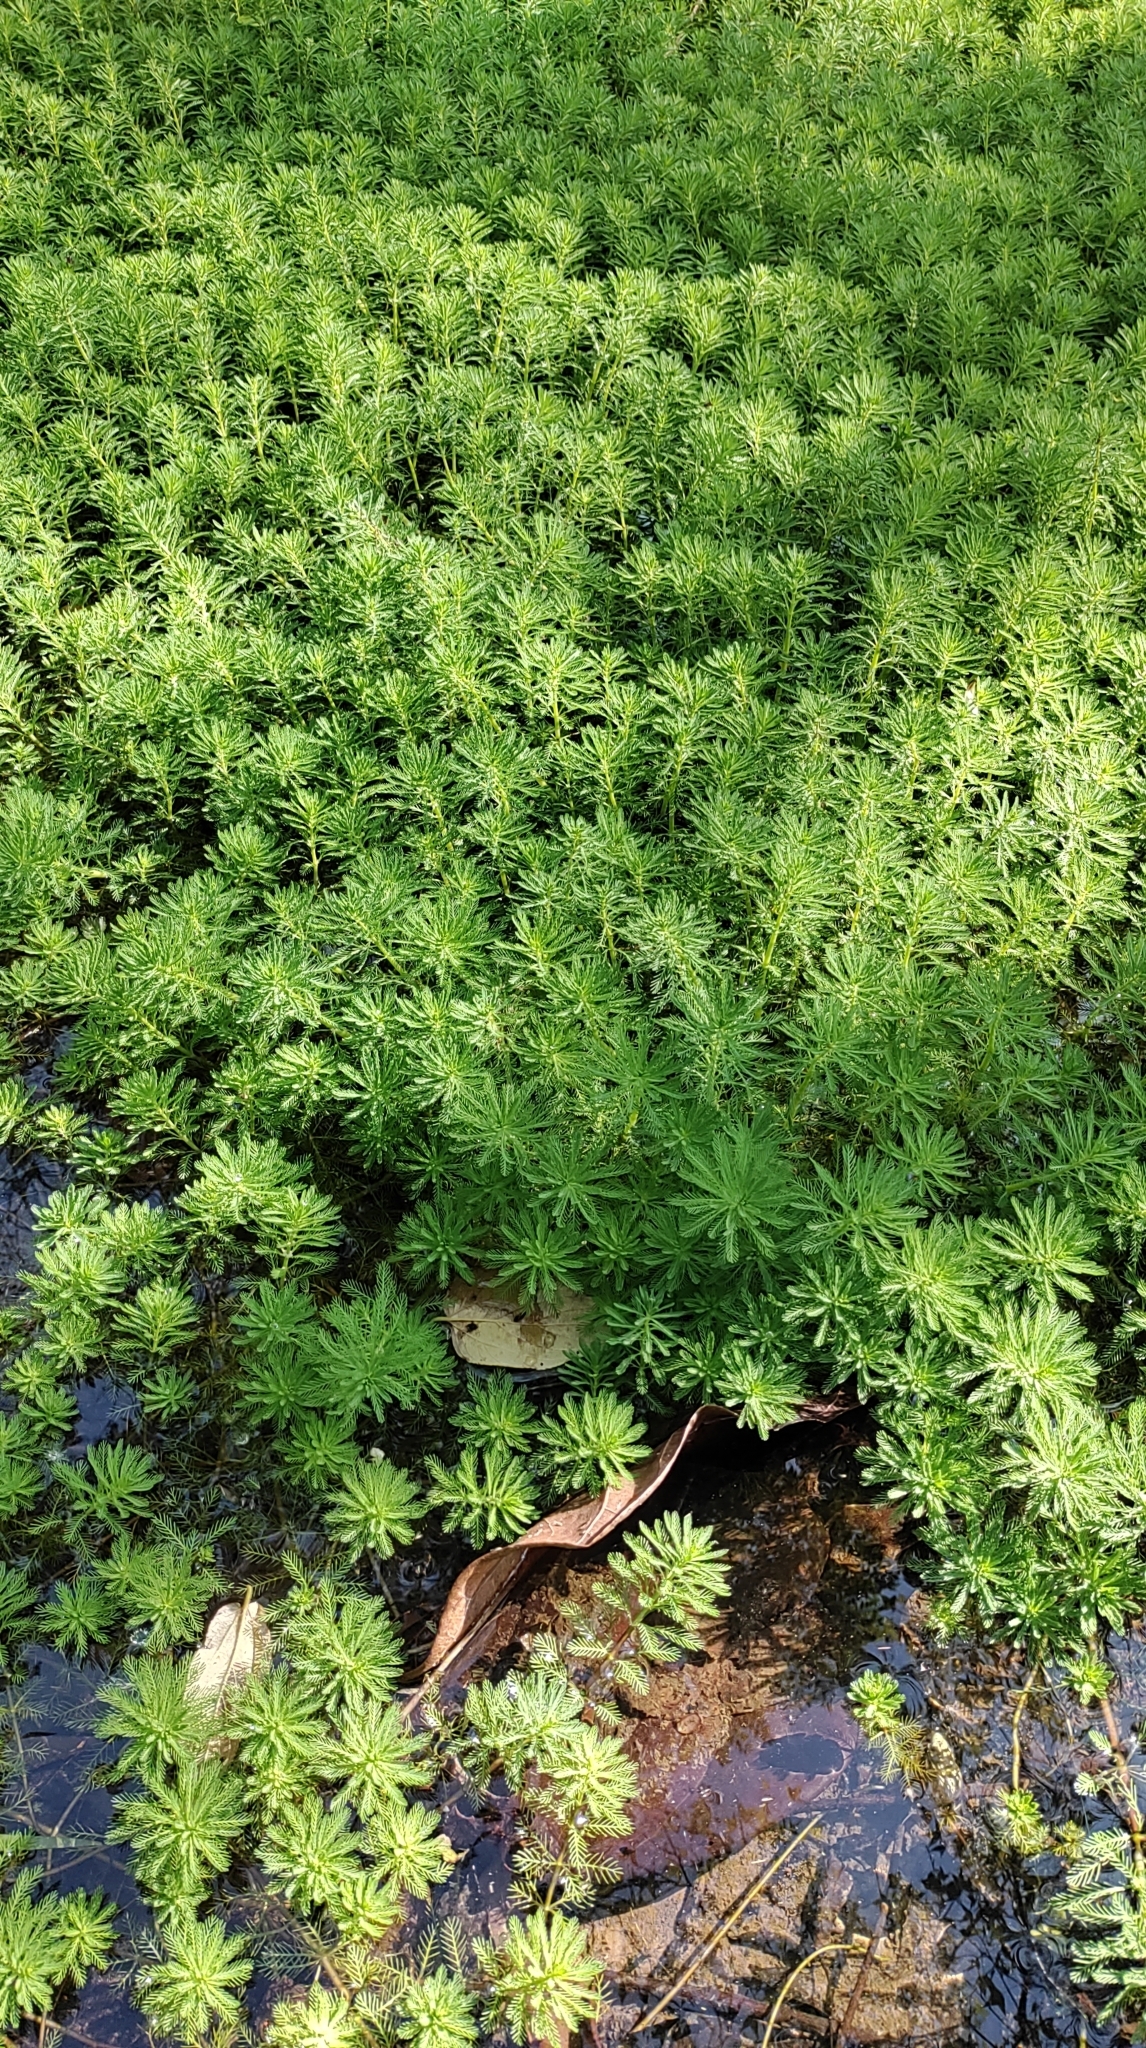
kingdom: Plantae
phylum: Tracheophyta
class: Magnoliopsida
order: Saxifragales
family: Haloragaceae
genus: Myriophyllum
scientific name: Myriophyllum aquaticum
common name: Parrot's feather
